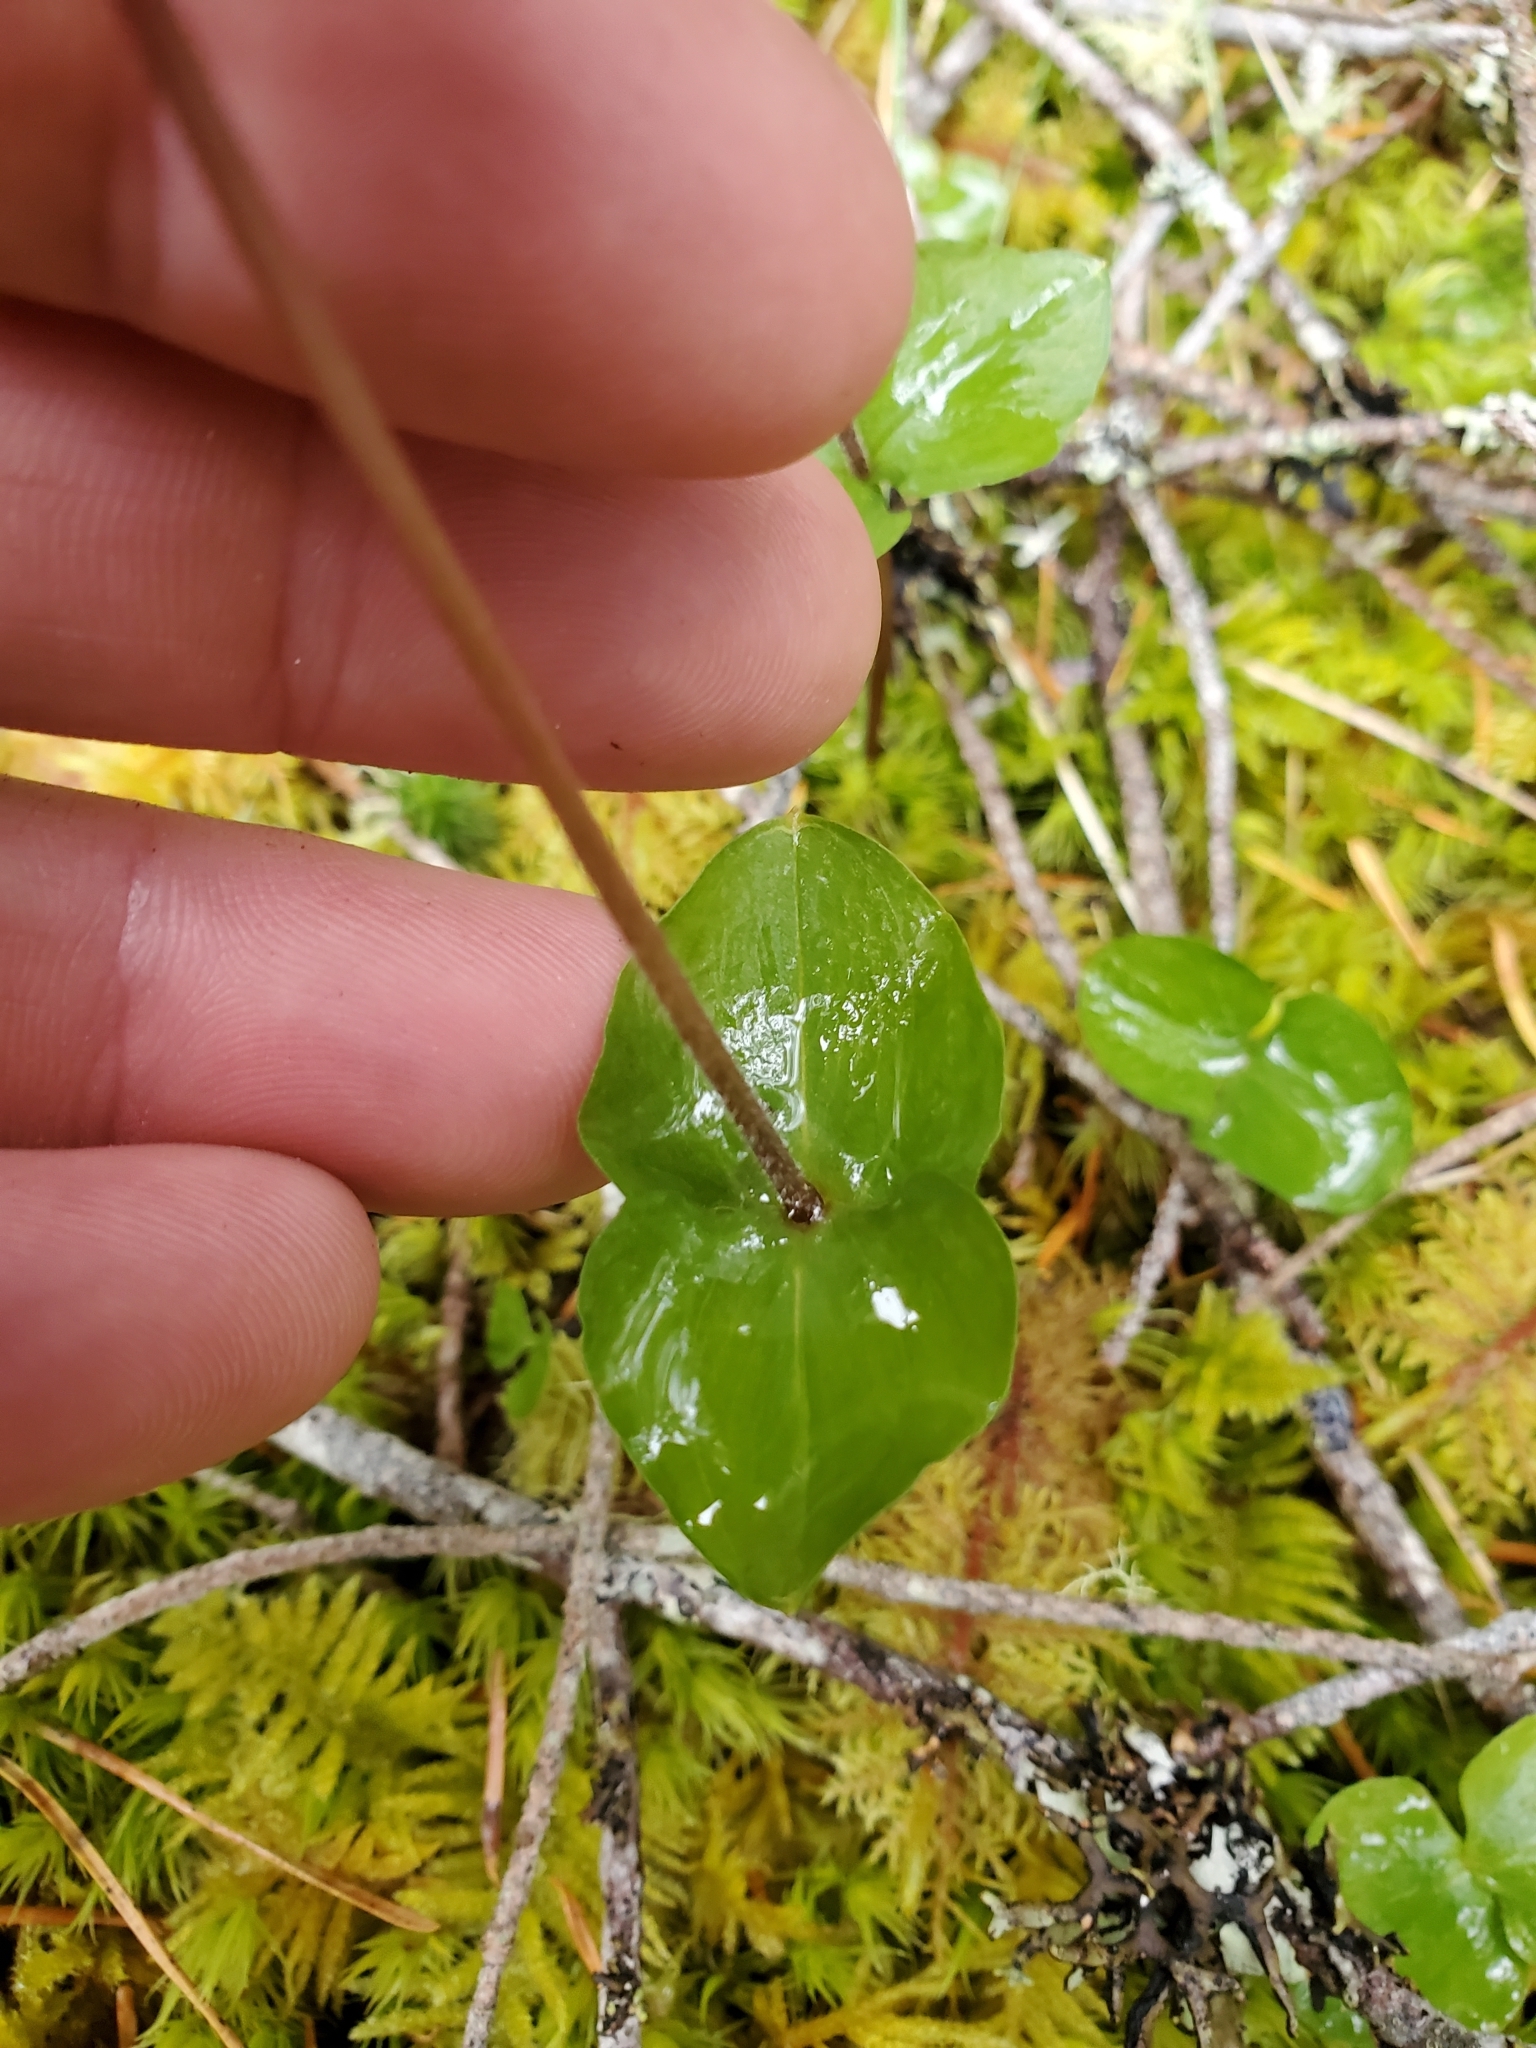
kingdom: Plantae
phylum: Tracheophyta
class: Liliopsida
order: Asparagales
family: Orchidaceae
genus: Neottia
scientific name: Neottia cordata
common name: Lesser twayblade
